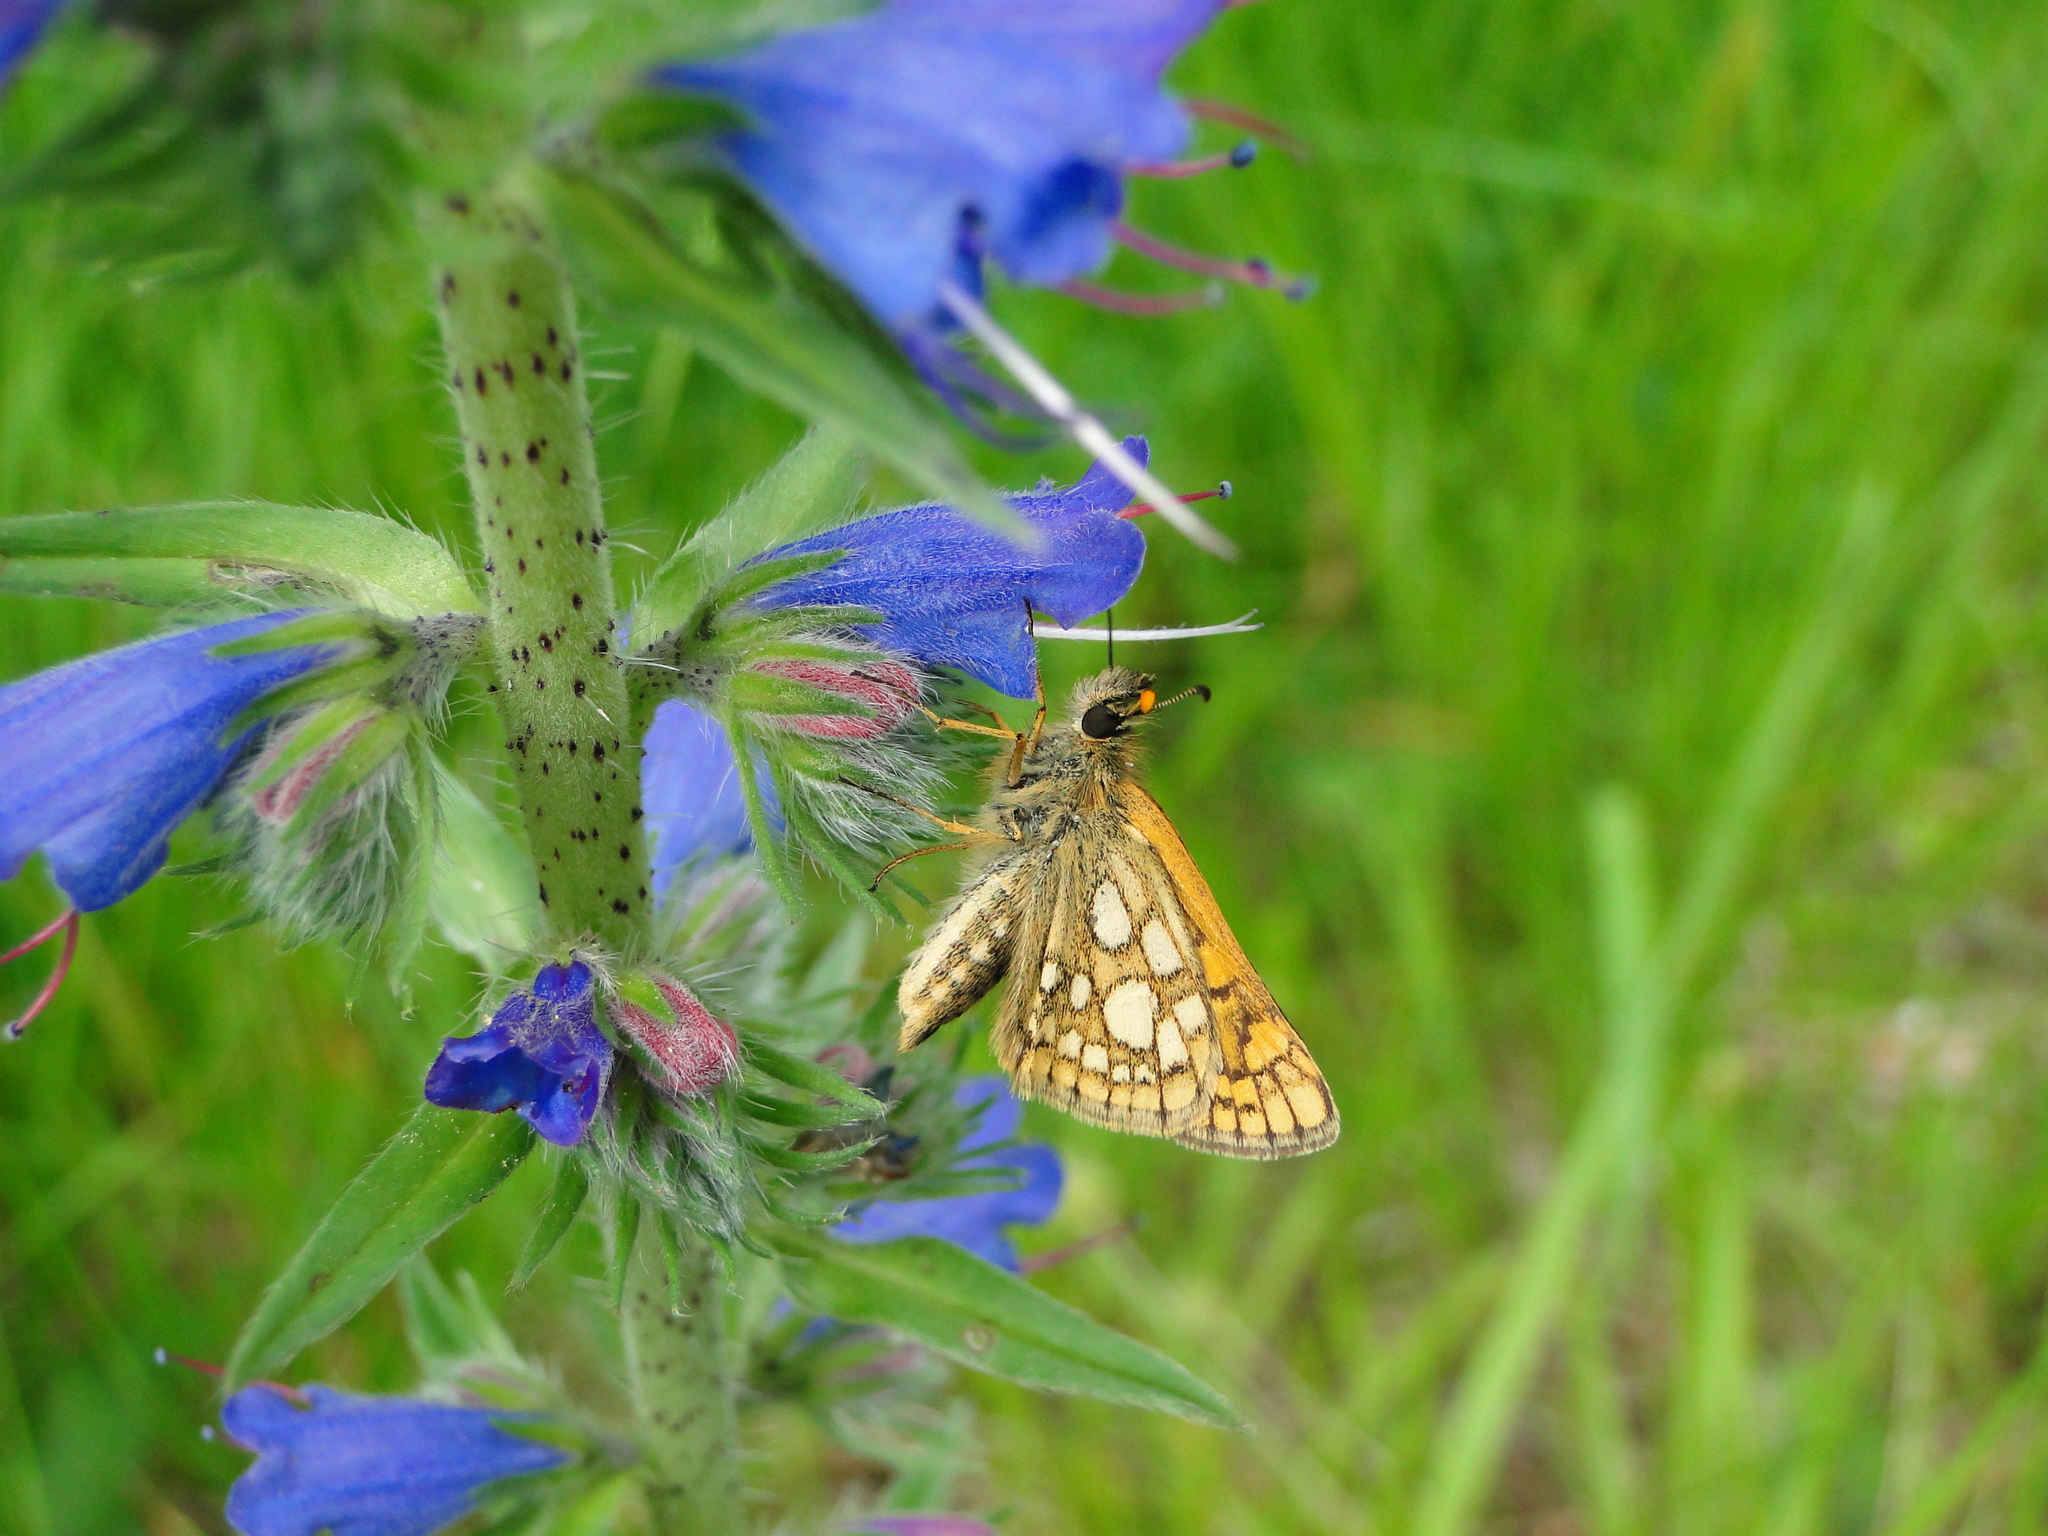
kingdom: Animalia
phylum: Arthropoda
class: Insecta
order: Lepidoptera
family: Hesperiidae
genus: Carterocephalus
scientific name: Carterocephalus palaemon
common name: Chequered skipper
